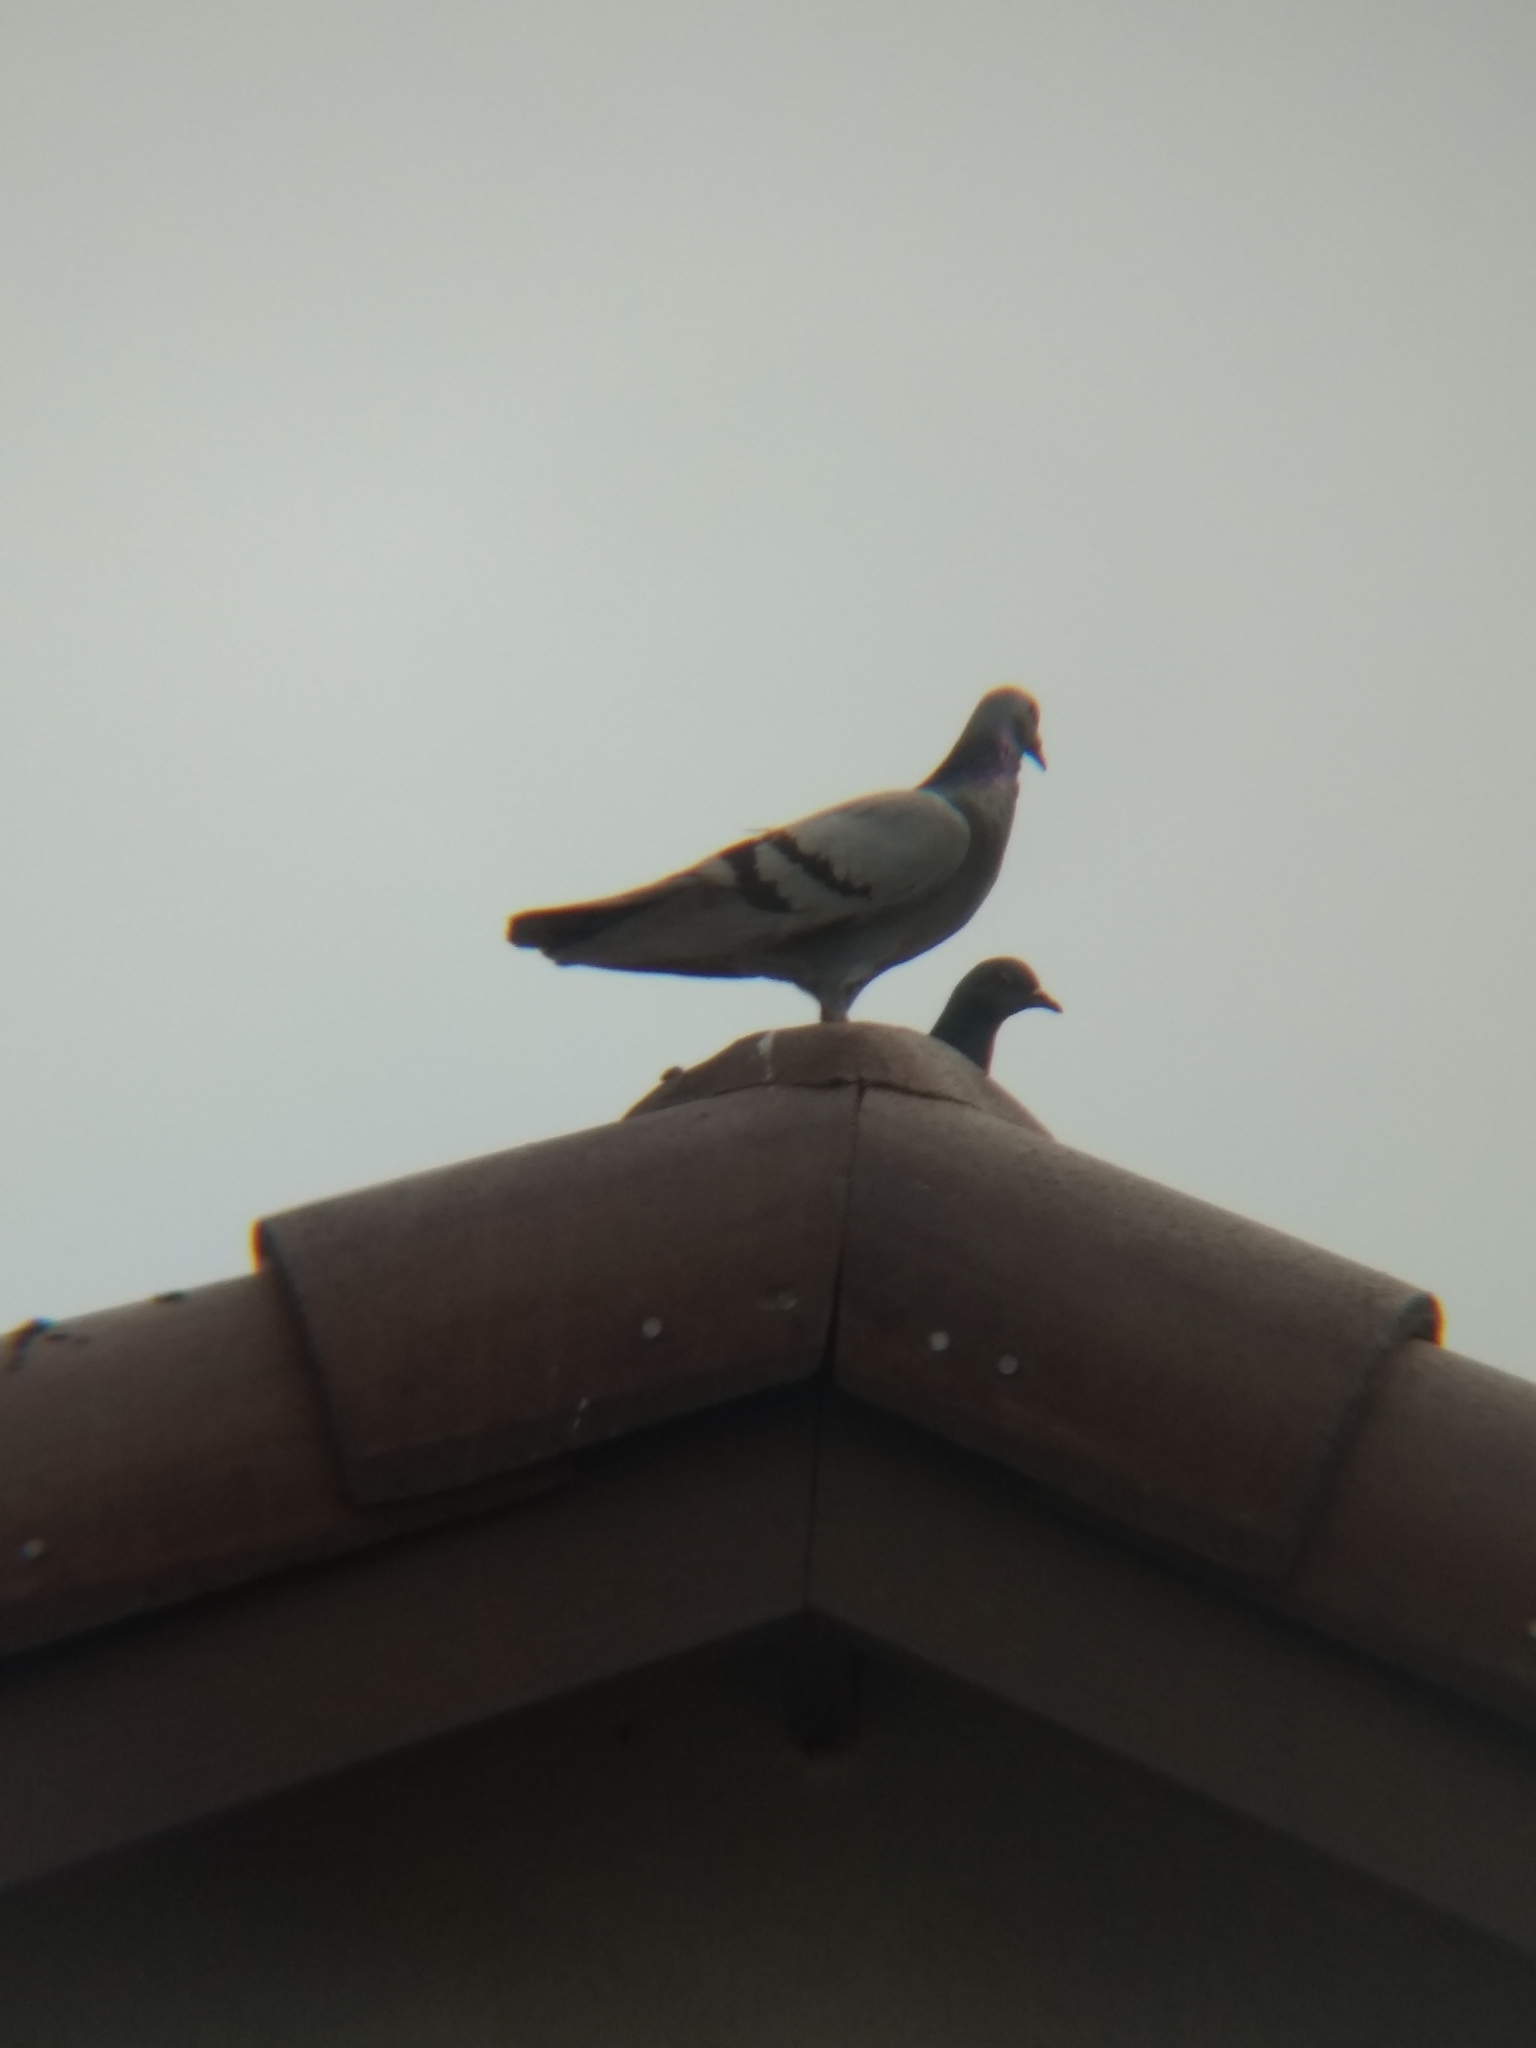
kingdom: Animalia
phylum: Chordata
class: Aves
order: Columbiformes
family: Columbidae
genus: Columba
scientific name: Columba livia
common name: Rock pigeon
